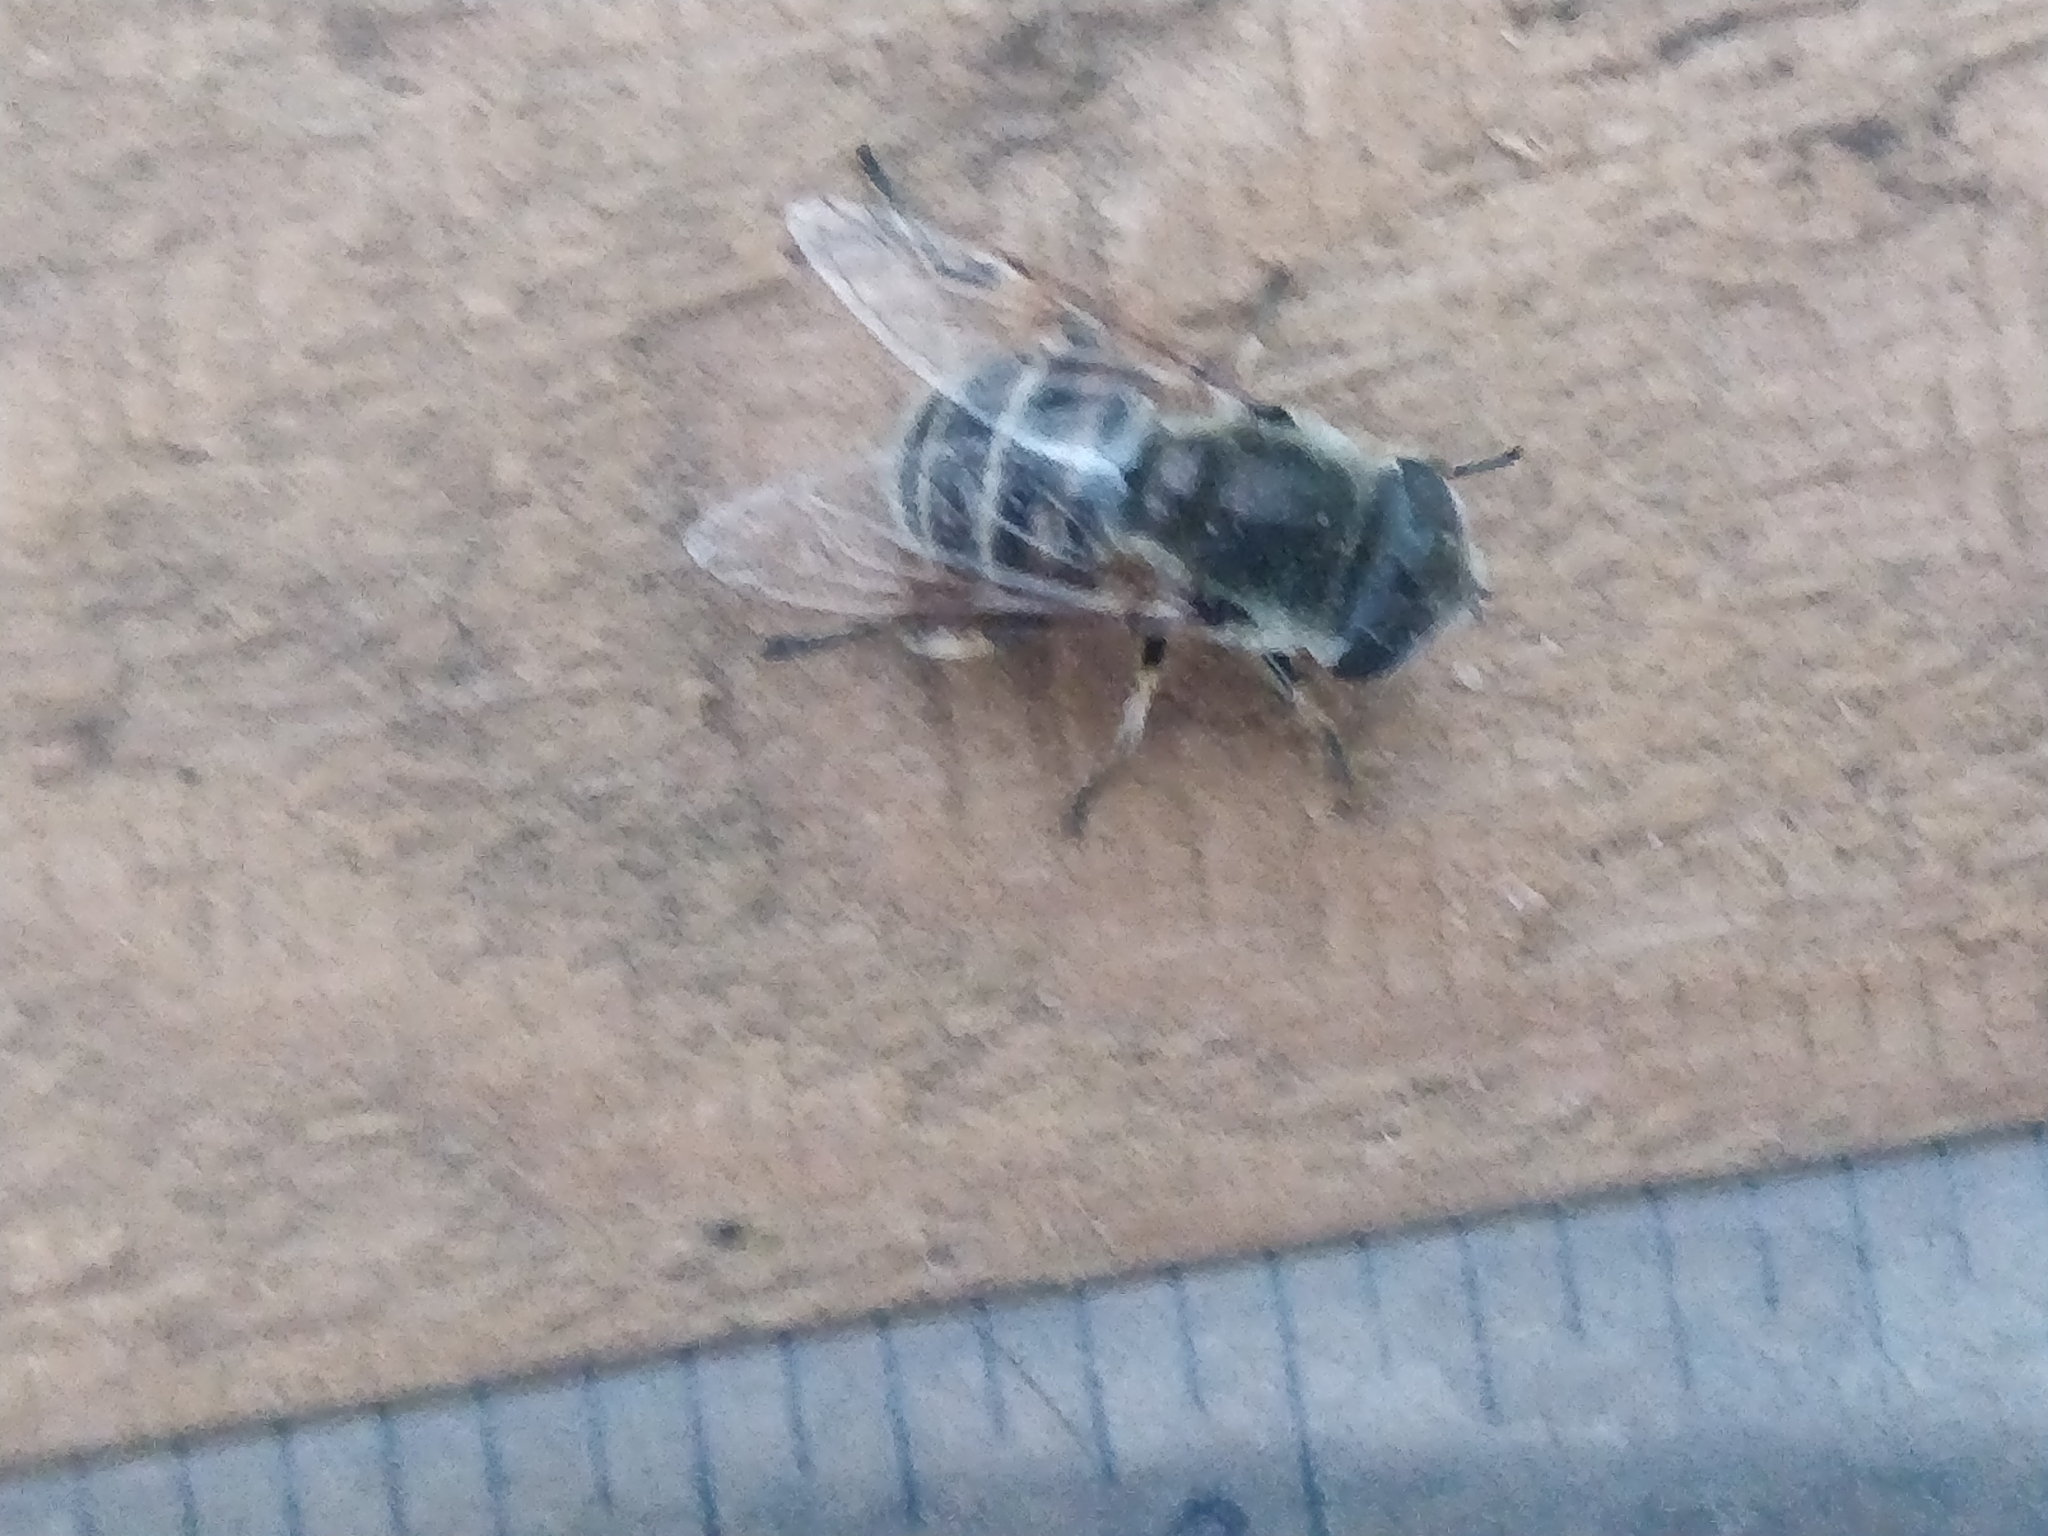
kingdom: Animalia
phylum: Arthropoda
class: Insecta
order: Diptera
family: Syrphidae
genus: Eristalis
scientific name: Eristalis stipator
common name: Yellow-shouldered drone fly
